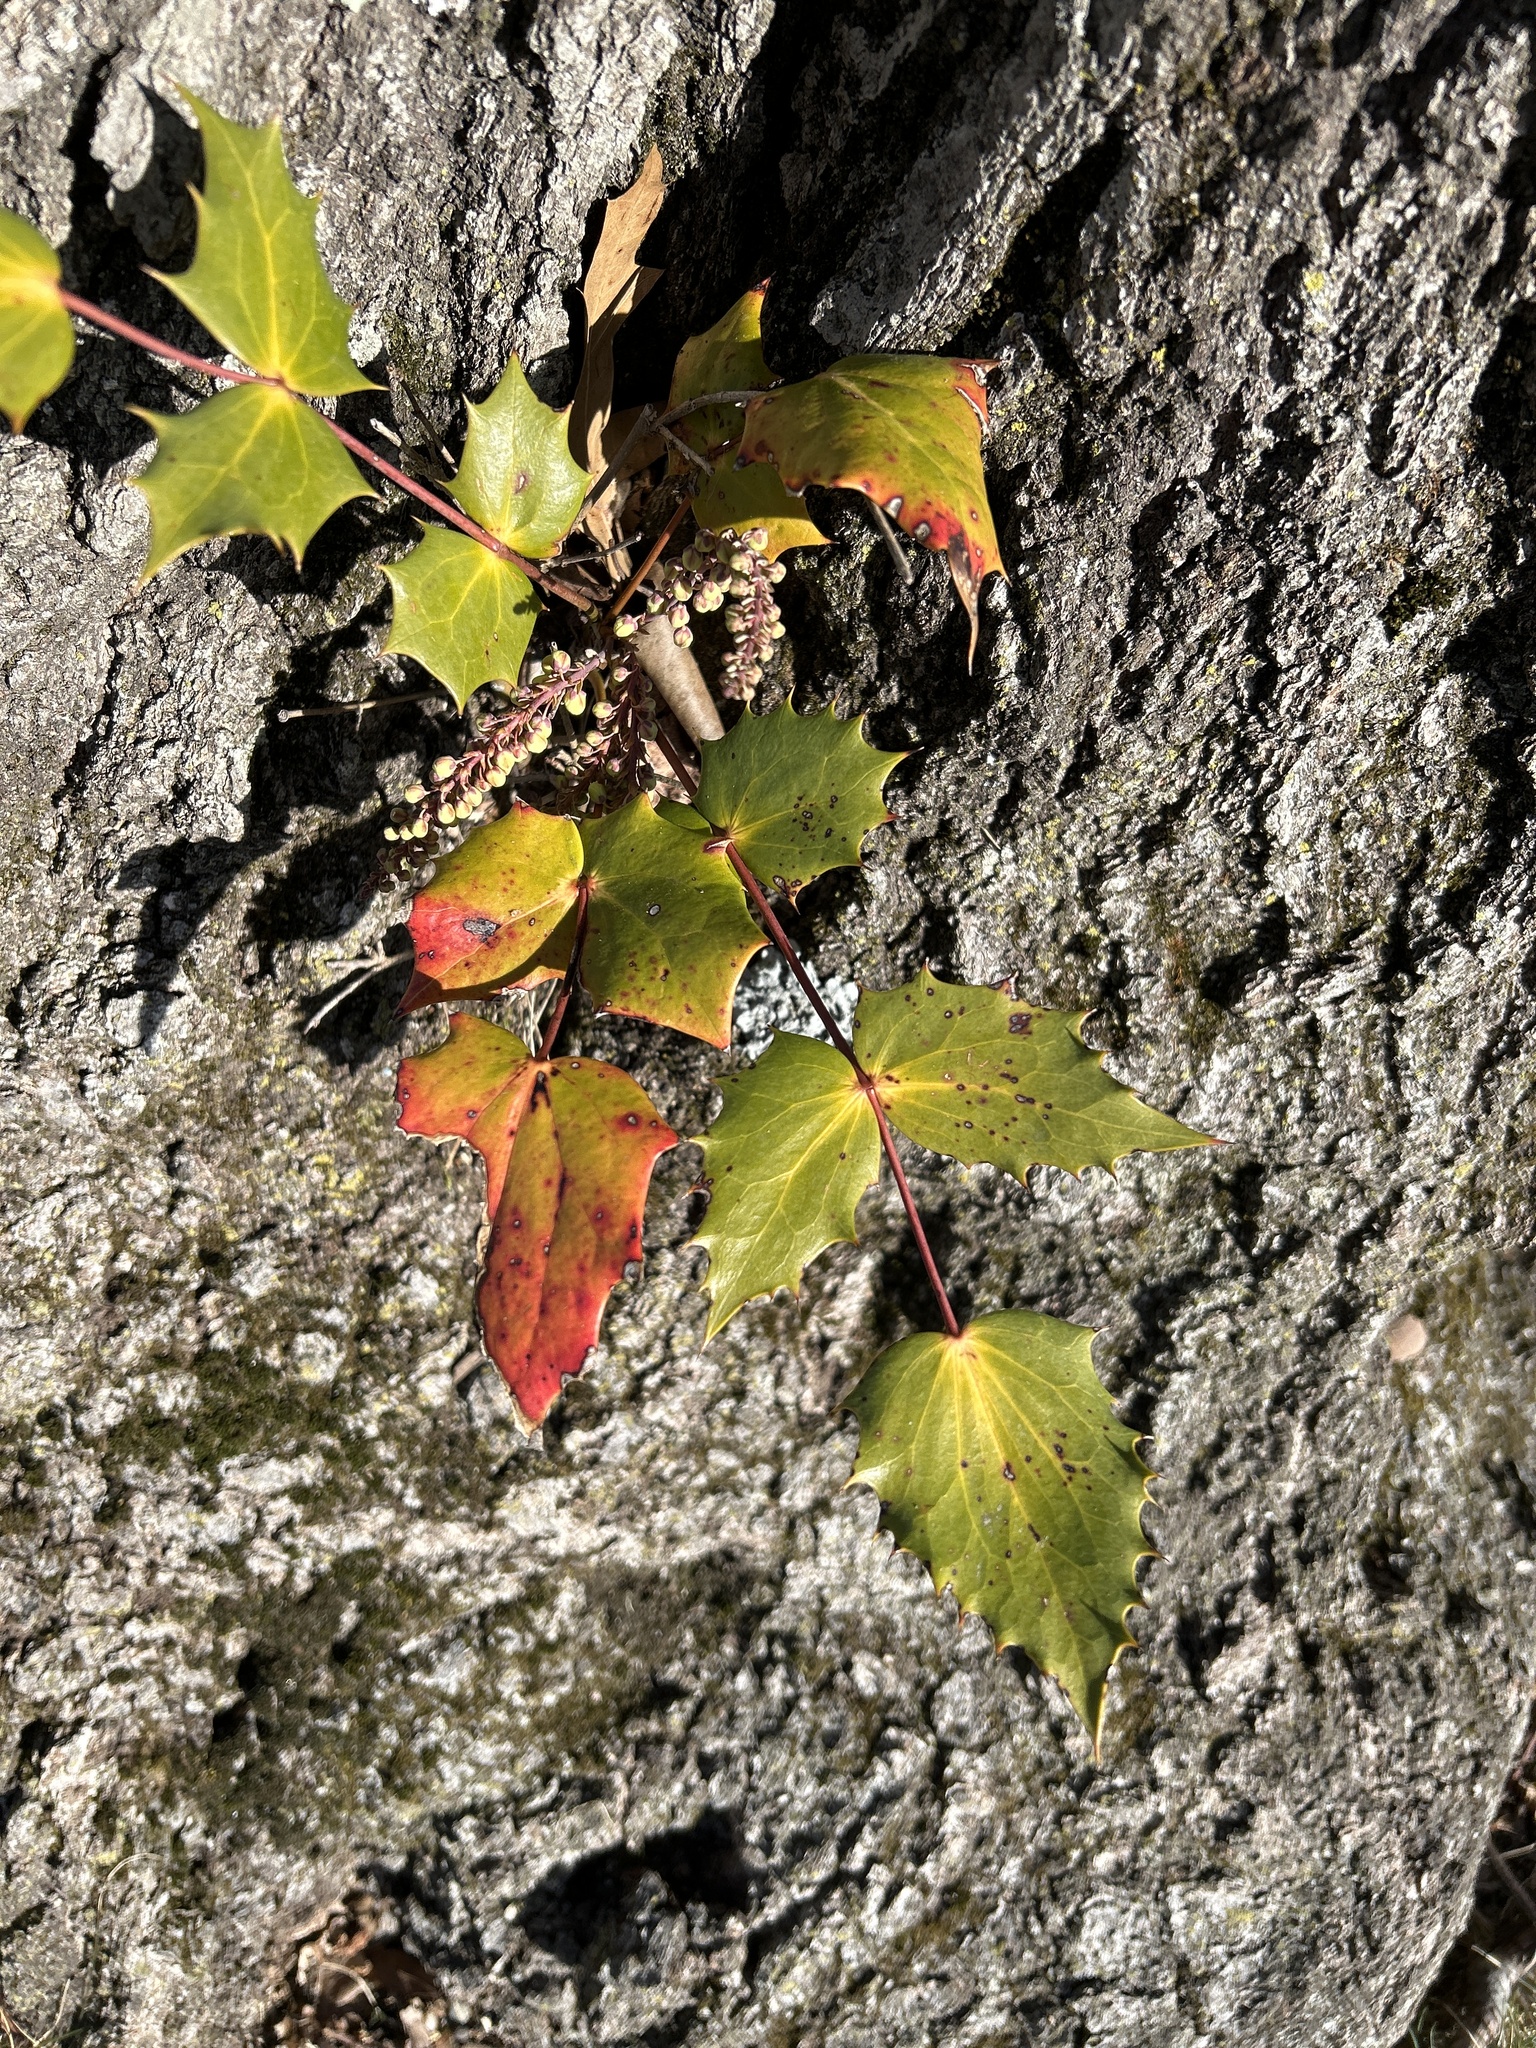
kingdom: Plantae
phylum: Tracheophyta
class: Magnoliopsida
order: Ranunculales
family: Berberidaceae
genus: Mahonia
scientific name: Mahonia bealei
